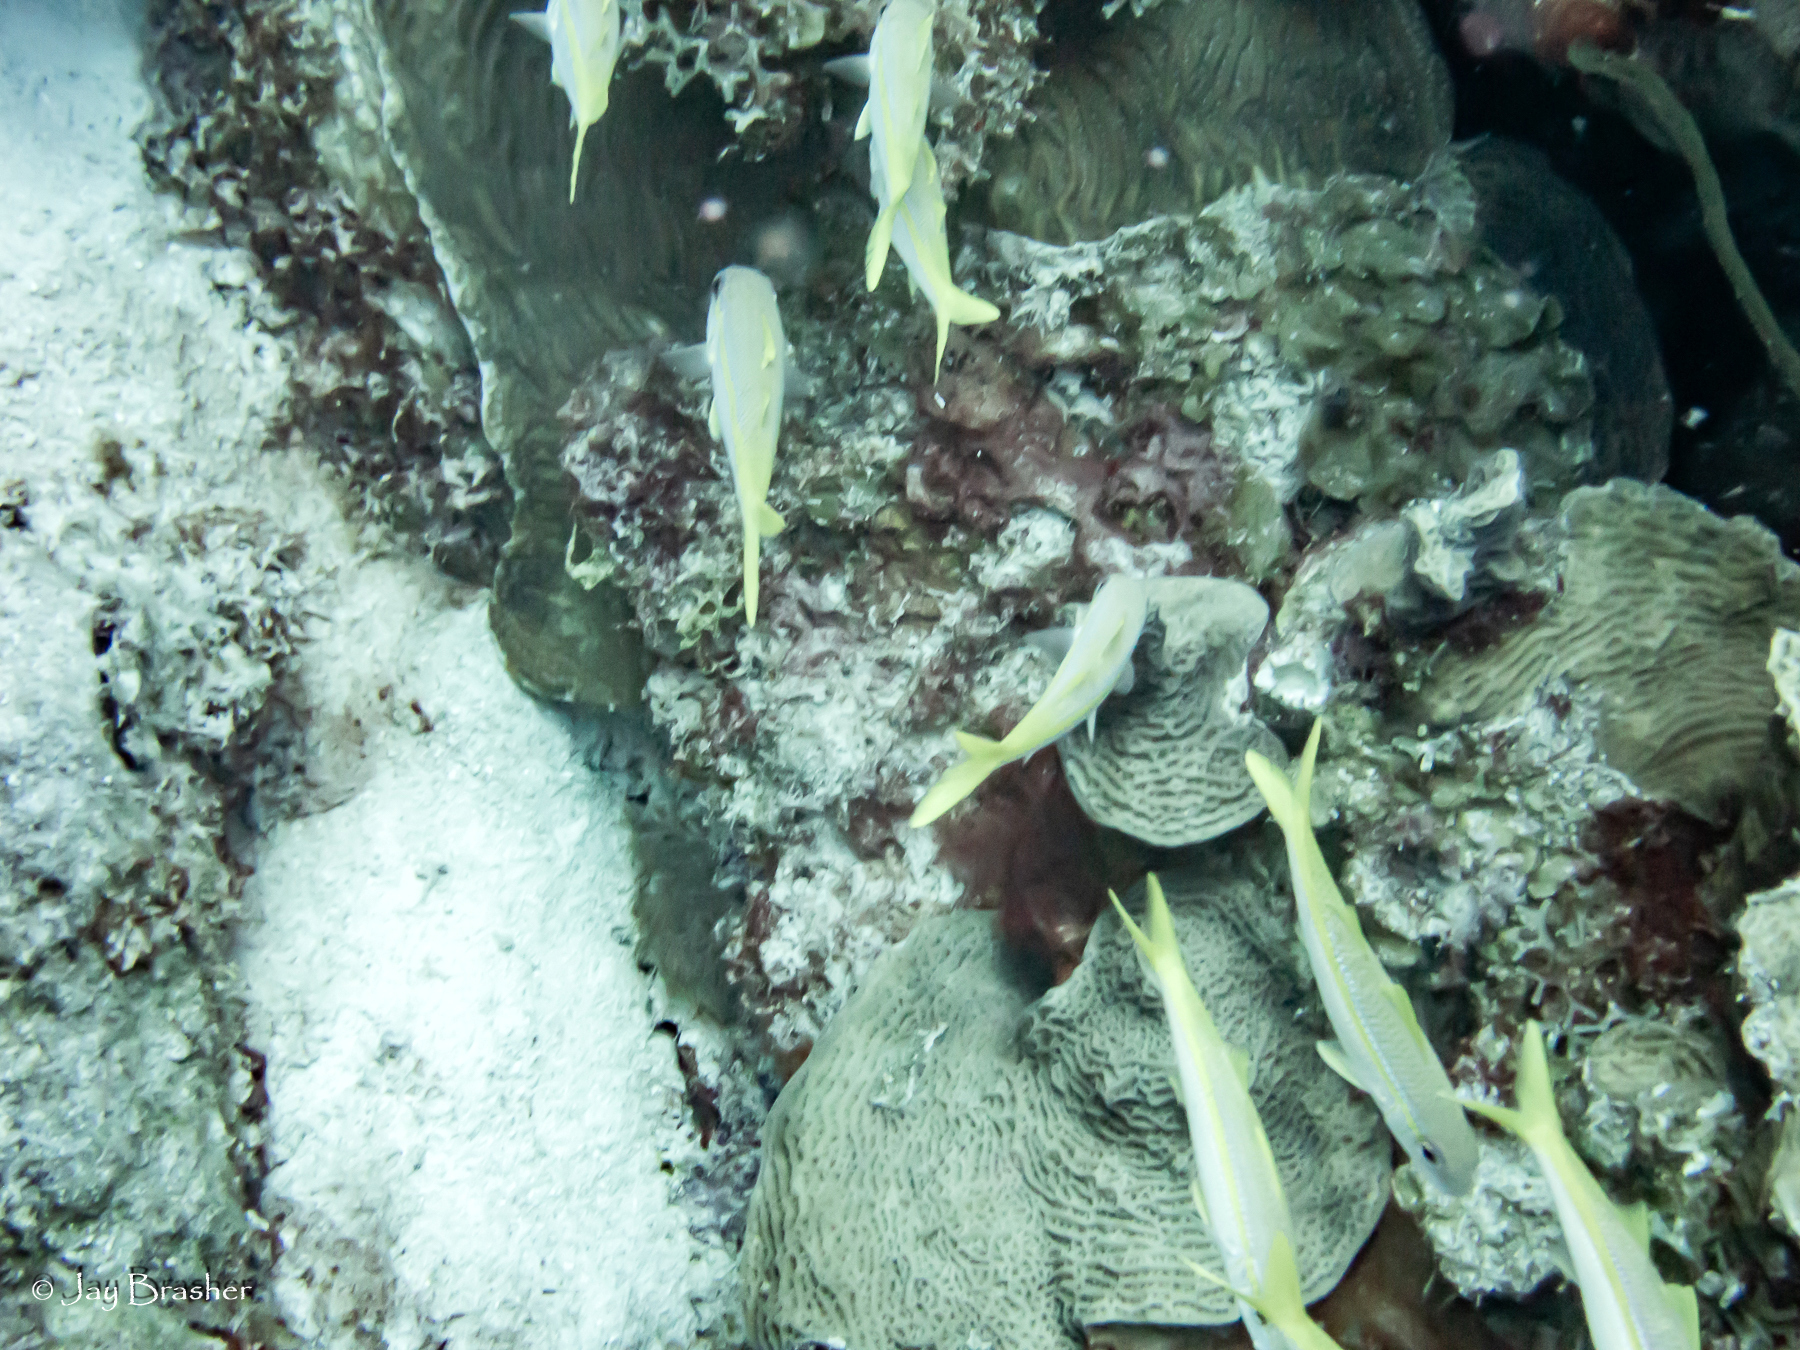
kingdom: Animalia
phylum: Chordata
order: Perciformes
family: Mullidae
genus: Mulloidichthys
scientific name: Mulloidichthys martinicus
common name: Yellow goatfish
